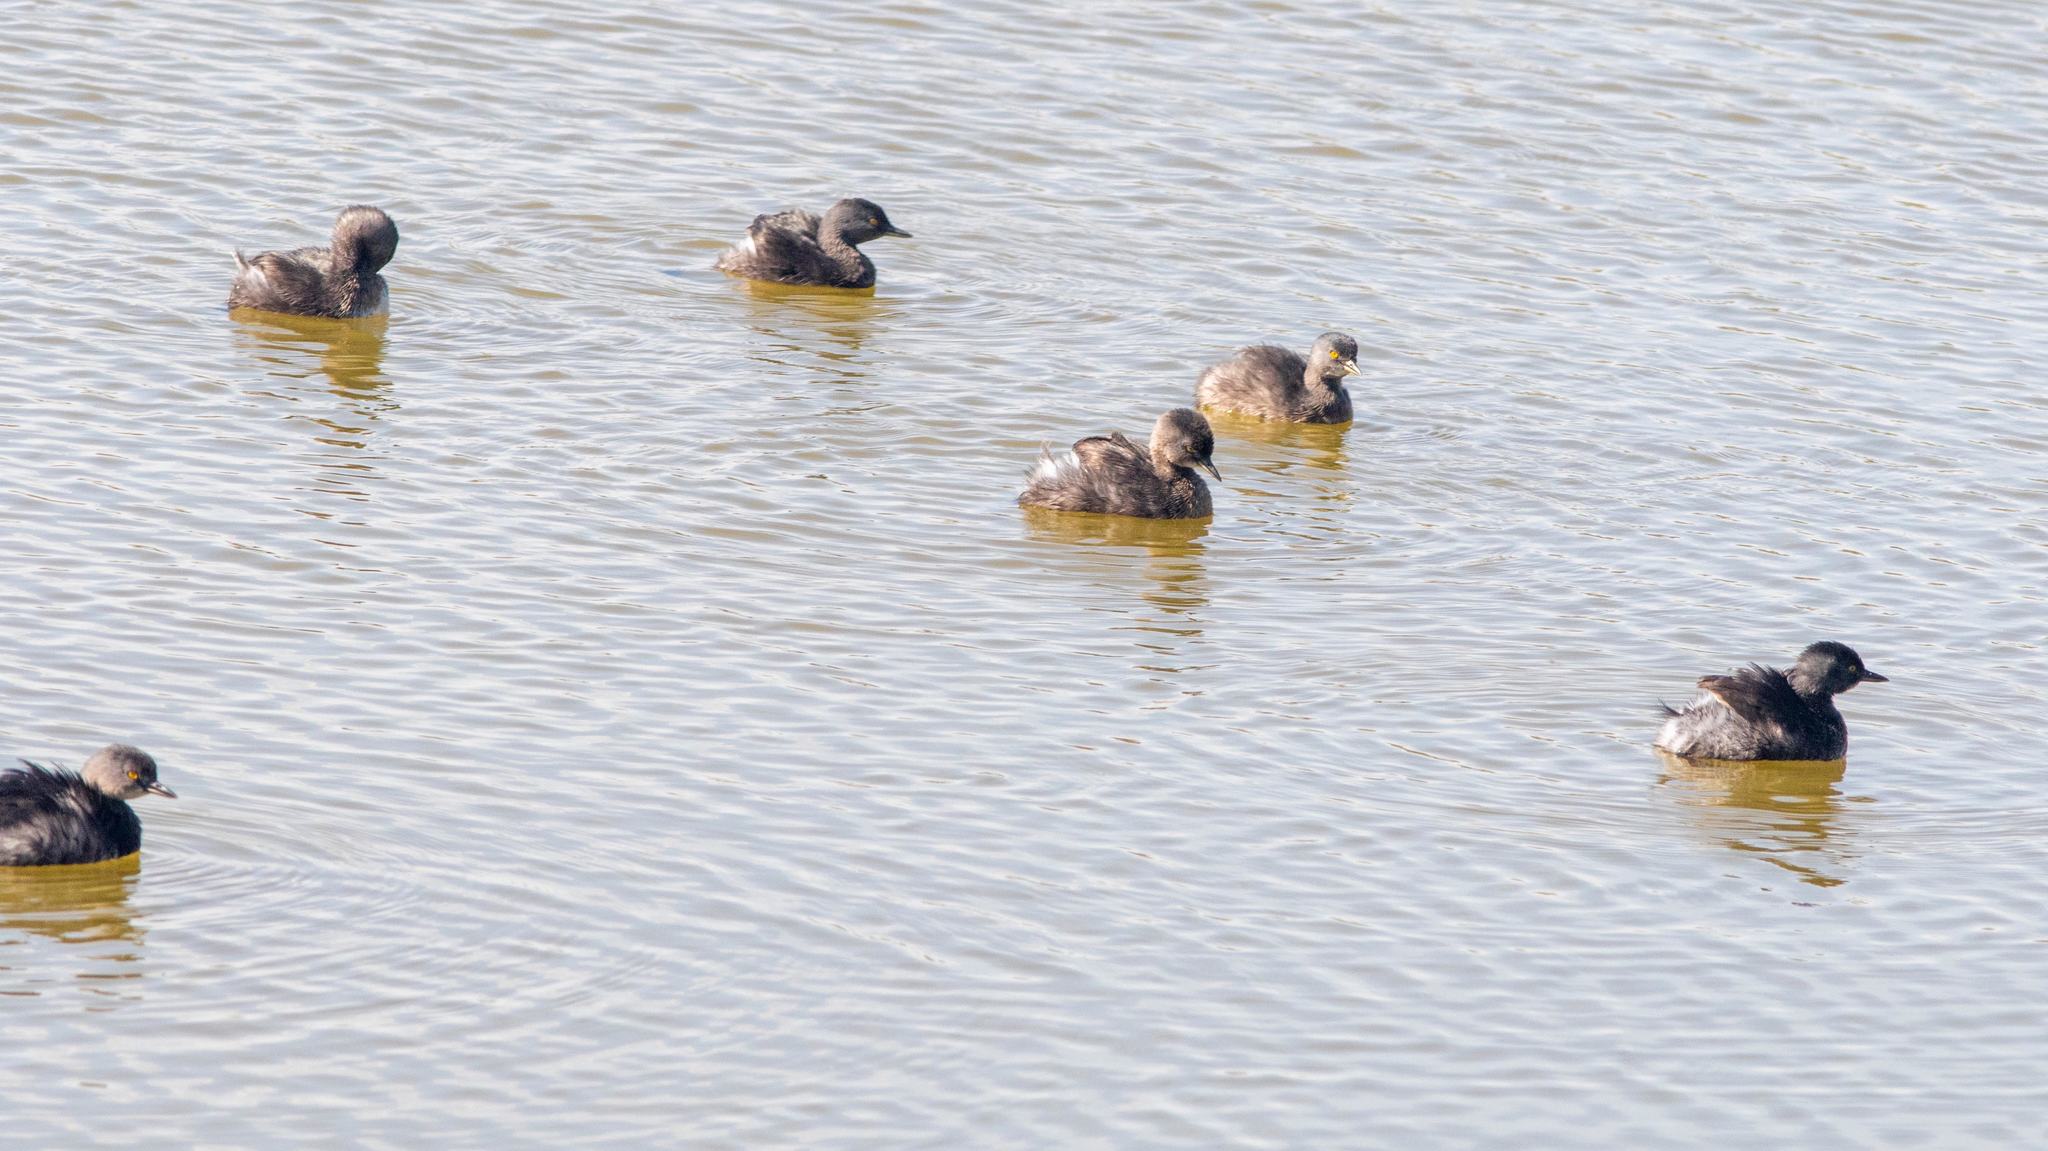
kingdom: Animalia
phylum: Chordata
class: Aves
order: Podicipediformes
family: Podicipedidae
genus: Tachybaptus
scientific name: Tachybaptus dominicus
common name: Least grebe
